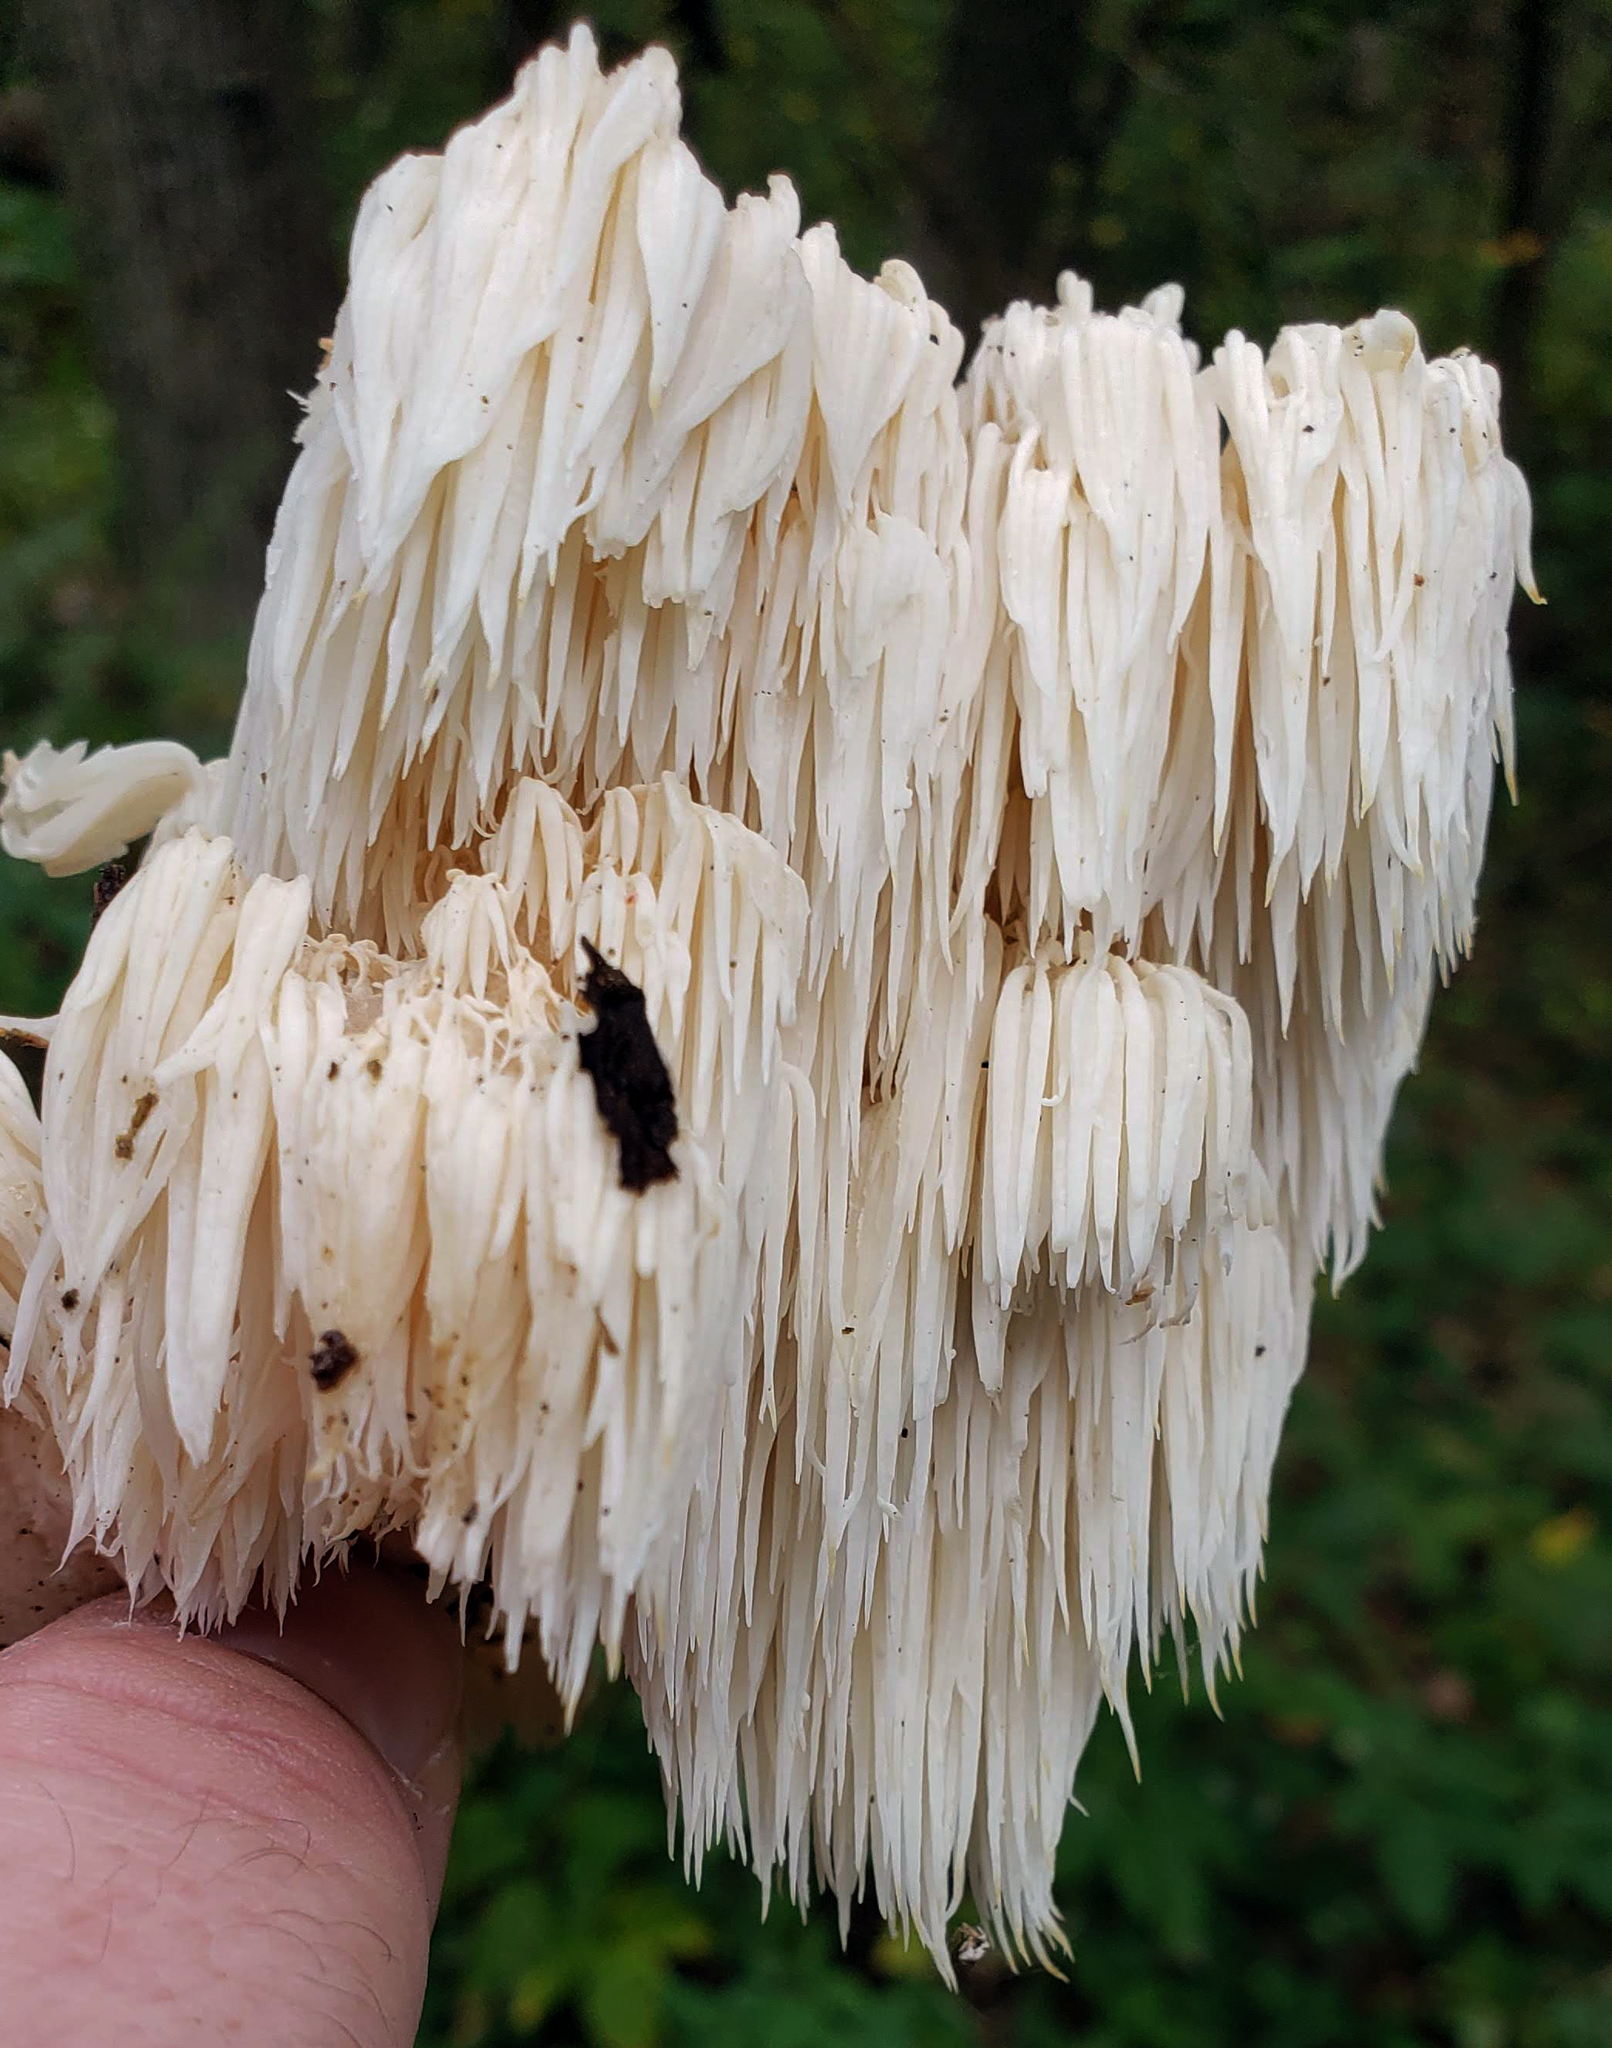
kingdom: Fungi
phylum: Basidiomycota
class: Agaricomycetes
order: Russulales
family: Hericiaceae
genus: Hericium
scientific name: Hericium americanum
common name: Bear's head tooth
